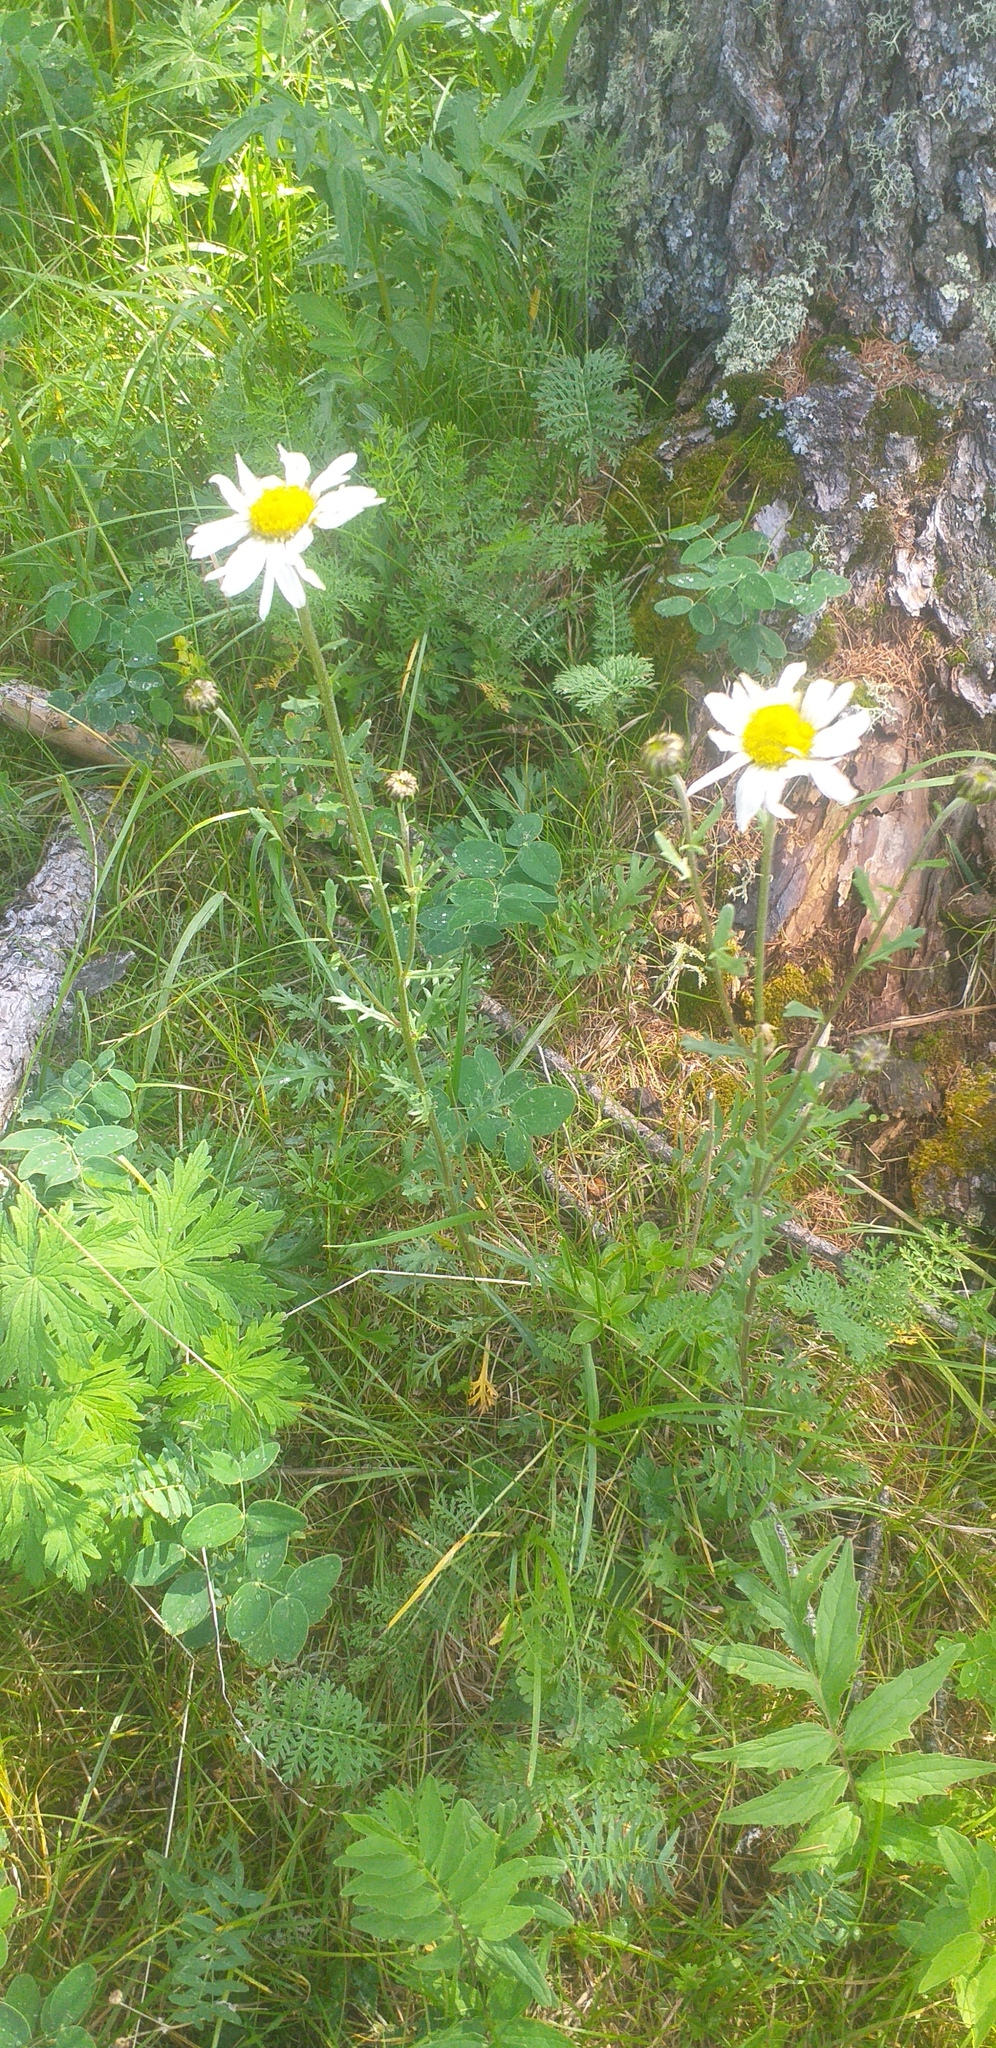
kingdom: Plantae
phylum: Tracheophyta
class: Magnoliopsida
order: Asterales
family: Asteraceae
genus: Chrysanthemum
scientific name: Chrysanthemum zawadzkii
